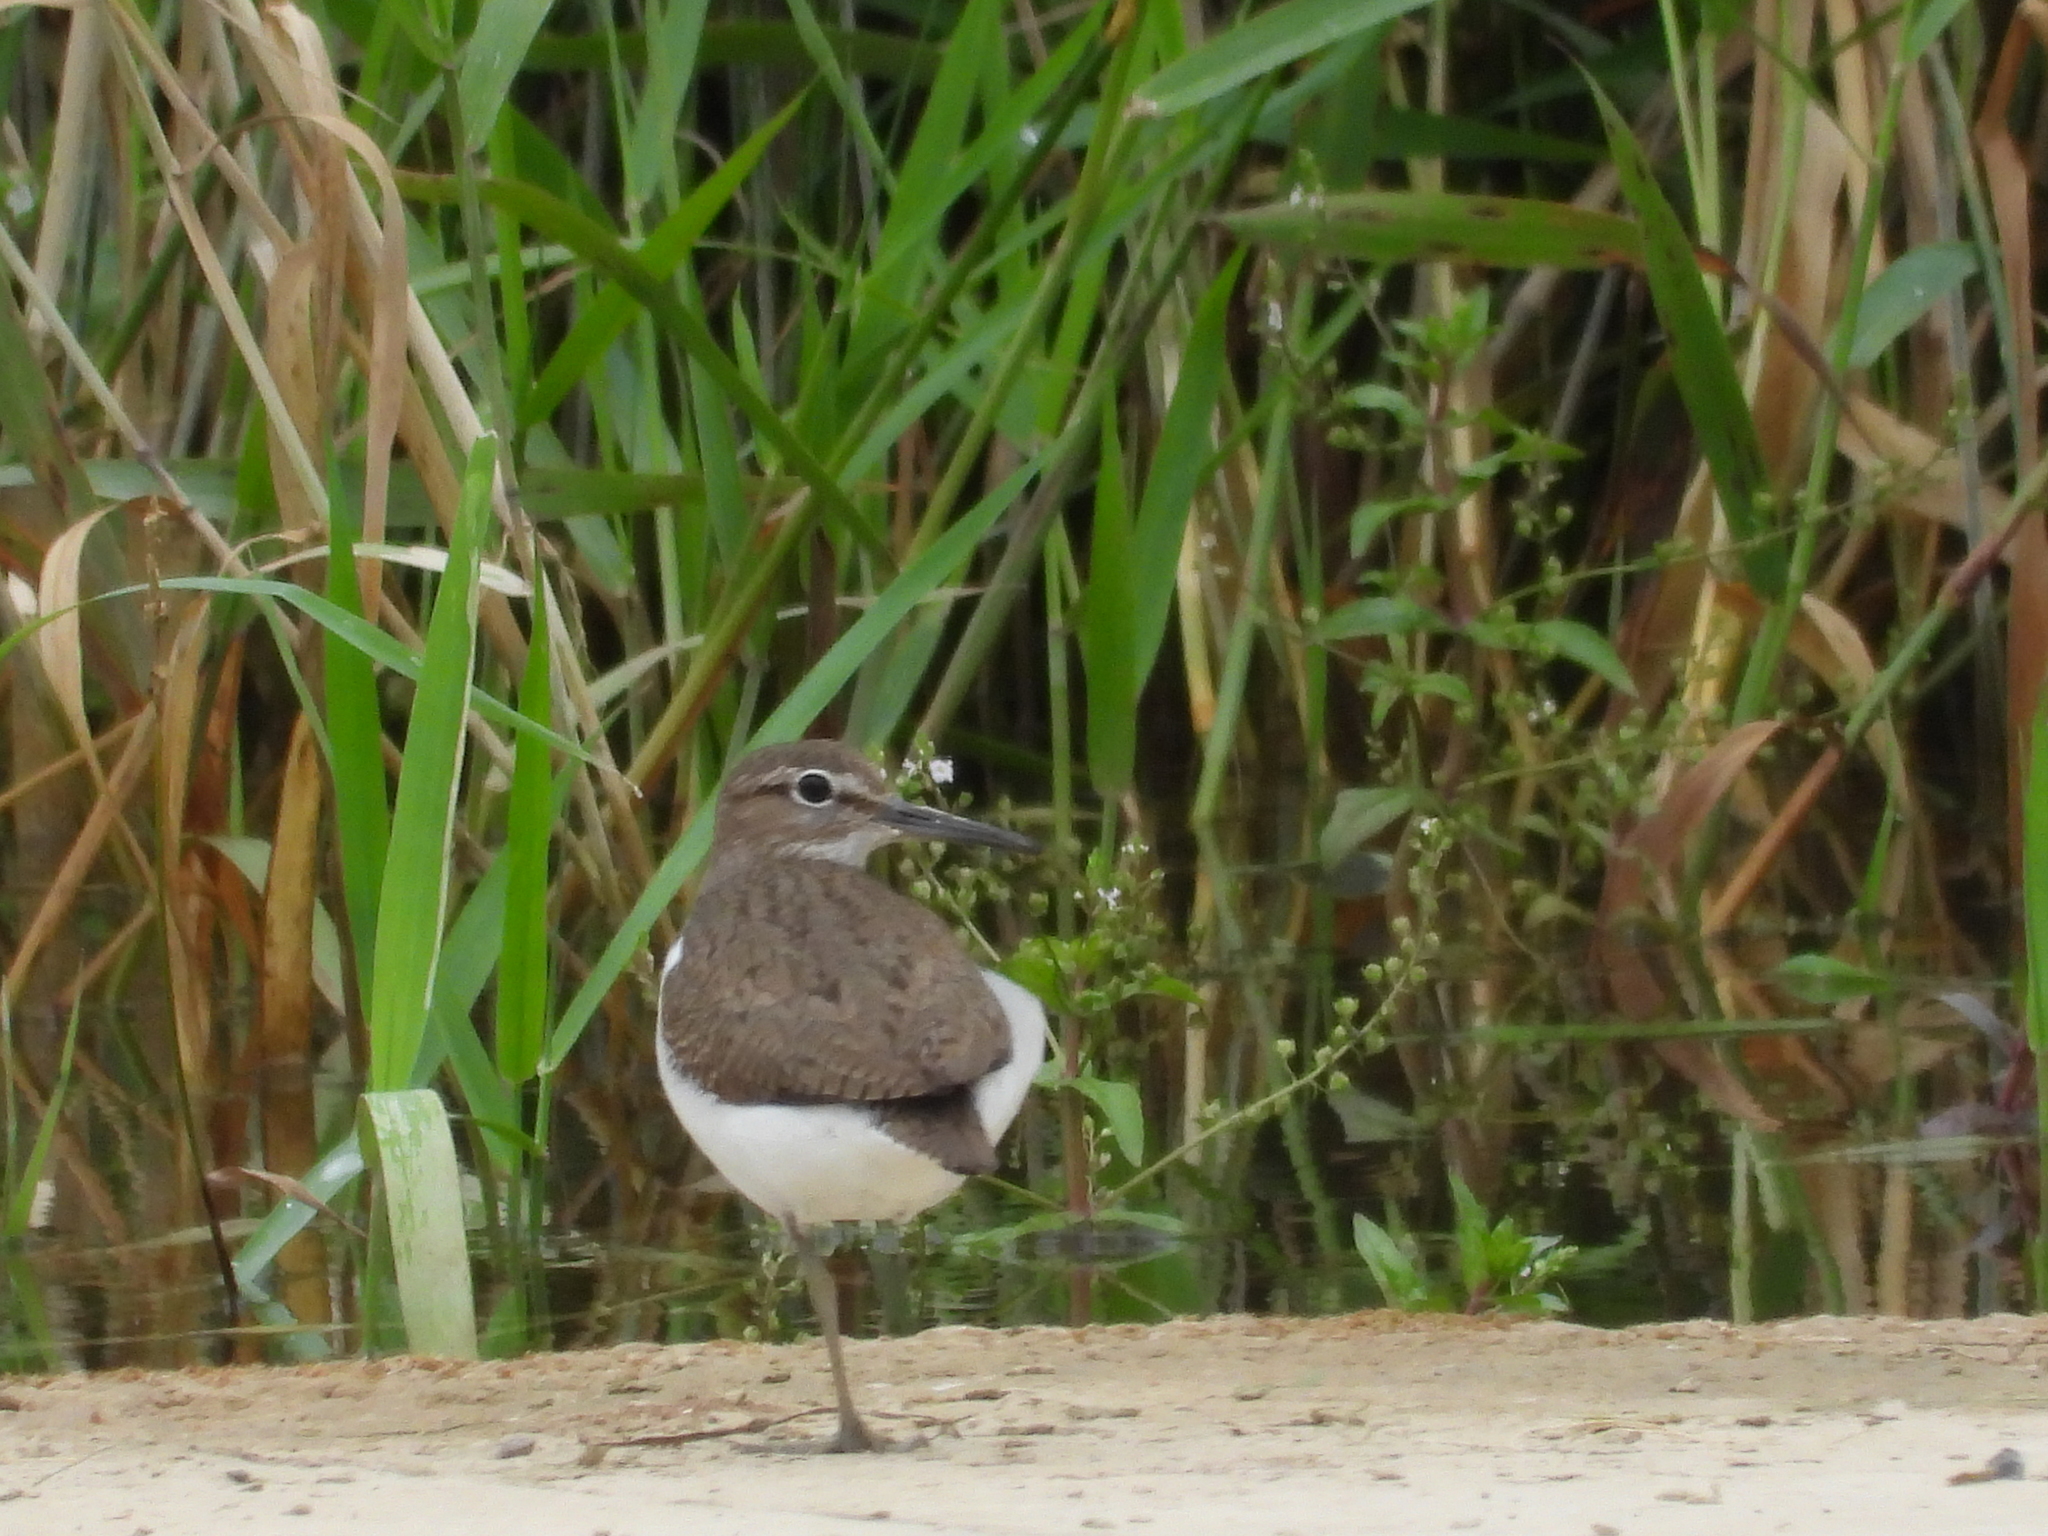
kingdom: Animalia
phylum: Chordata
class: Aves
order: Charadriiformes
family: Scolopacidae
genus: Actitis
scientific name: Actitis hypoleucos
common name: Common sandpiper
